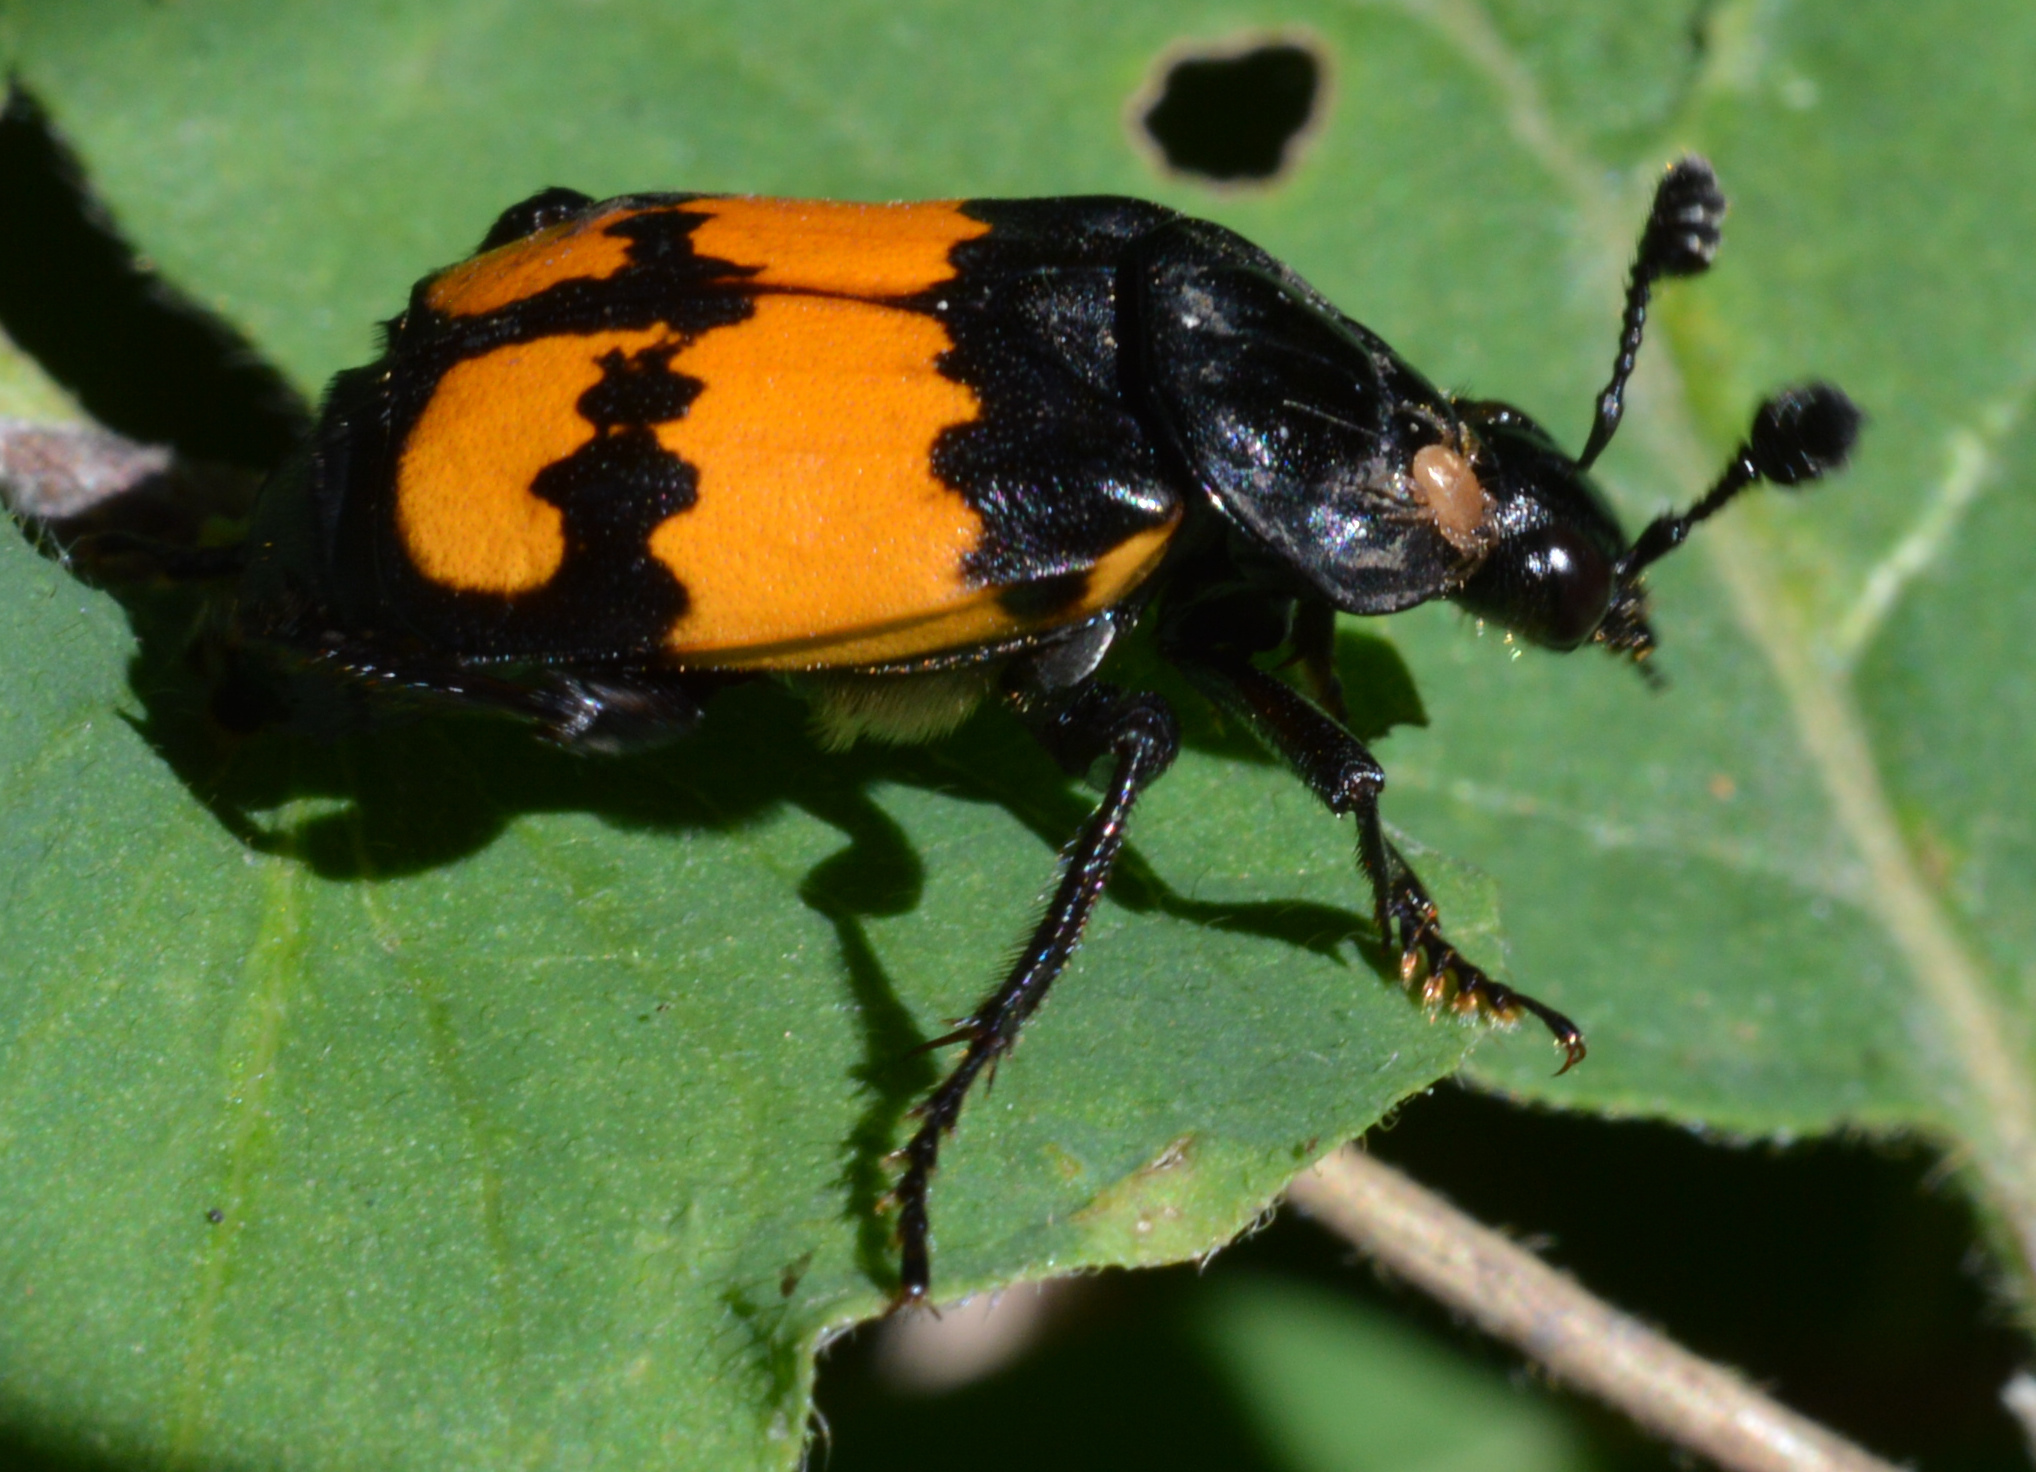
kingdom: Animalia
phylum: Arthropoda
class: Insecta
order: Coleoptera
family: Staphylinidae
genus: Nicrophorus
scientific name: Nicrophorus vespilloides
